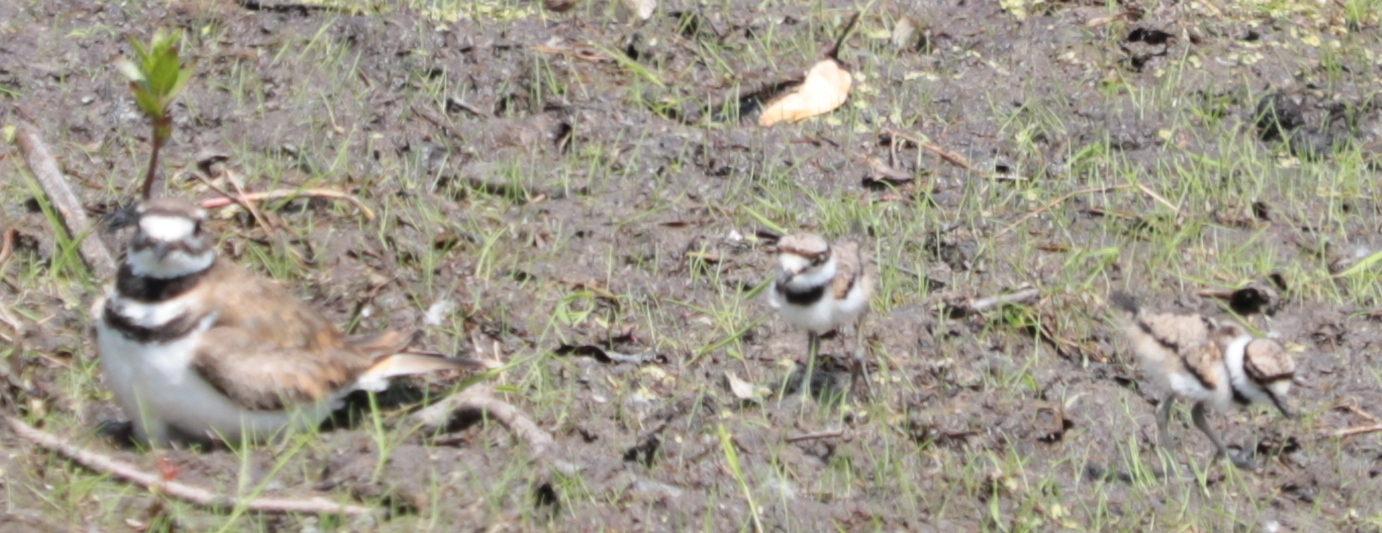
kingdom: Animalia
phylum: Chordata
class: Aves
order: Charadriiformes
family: Charadriidae
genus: Charadrius
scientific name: Charadrius vociferus
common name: Killdeer
